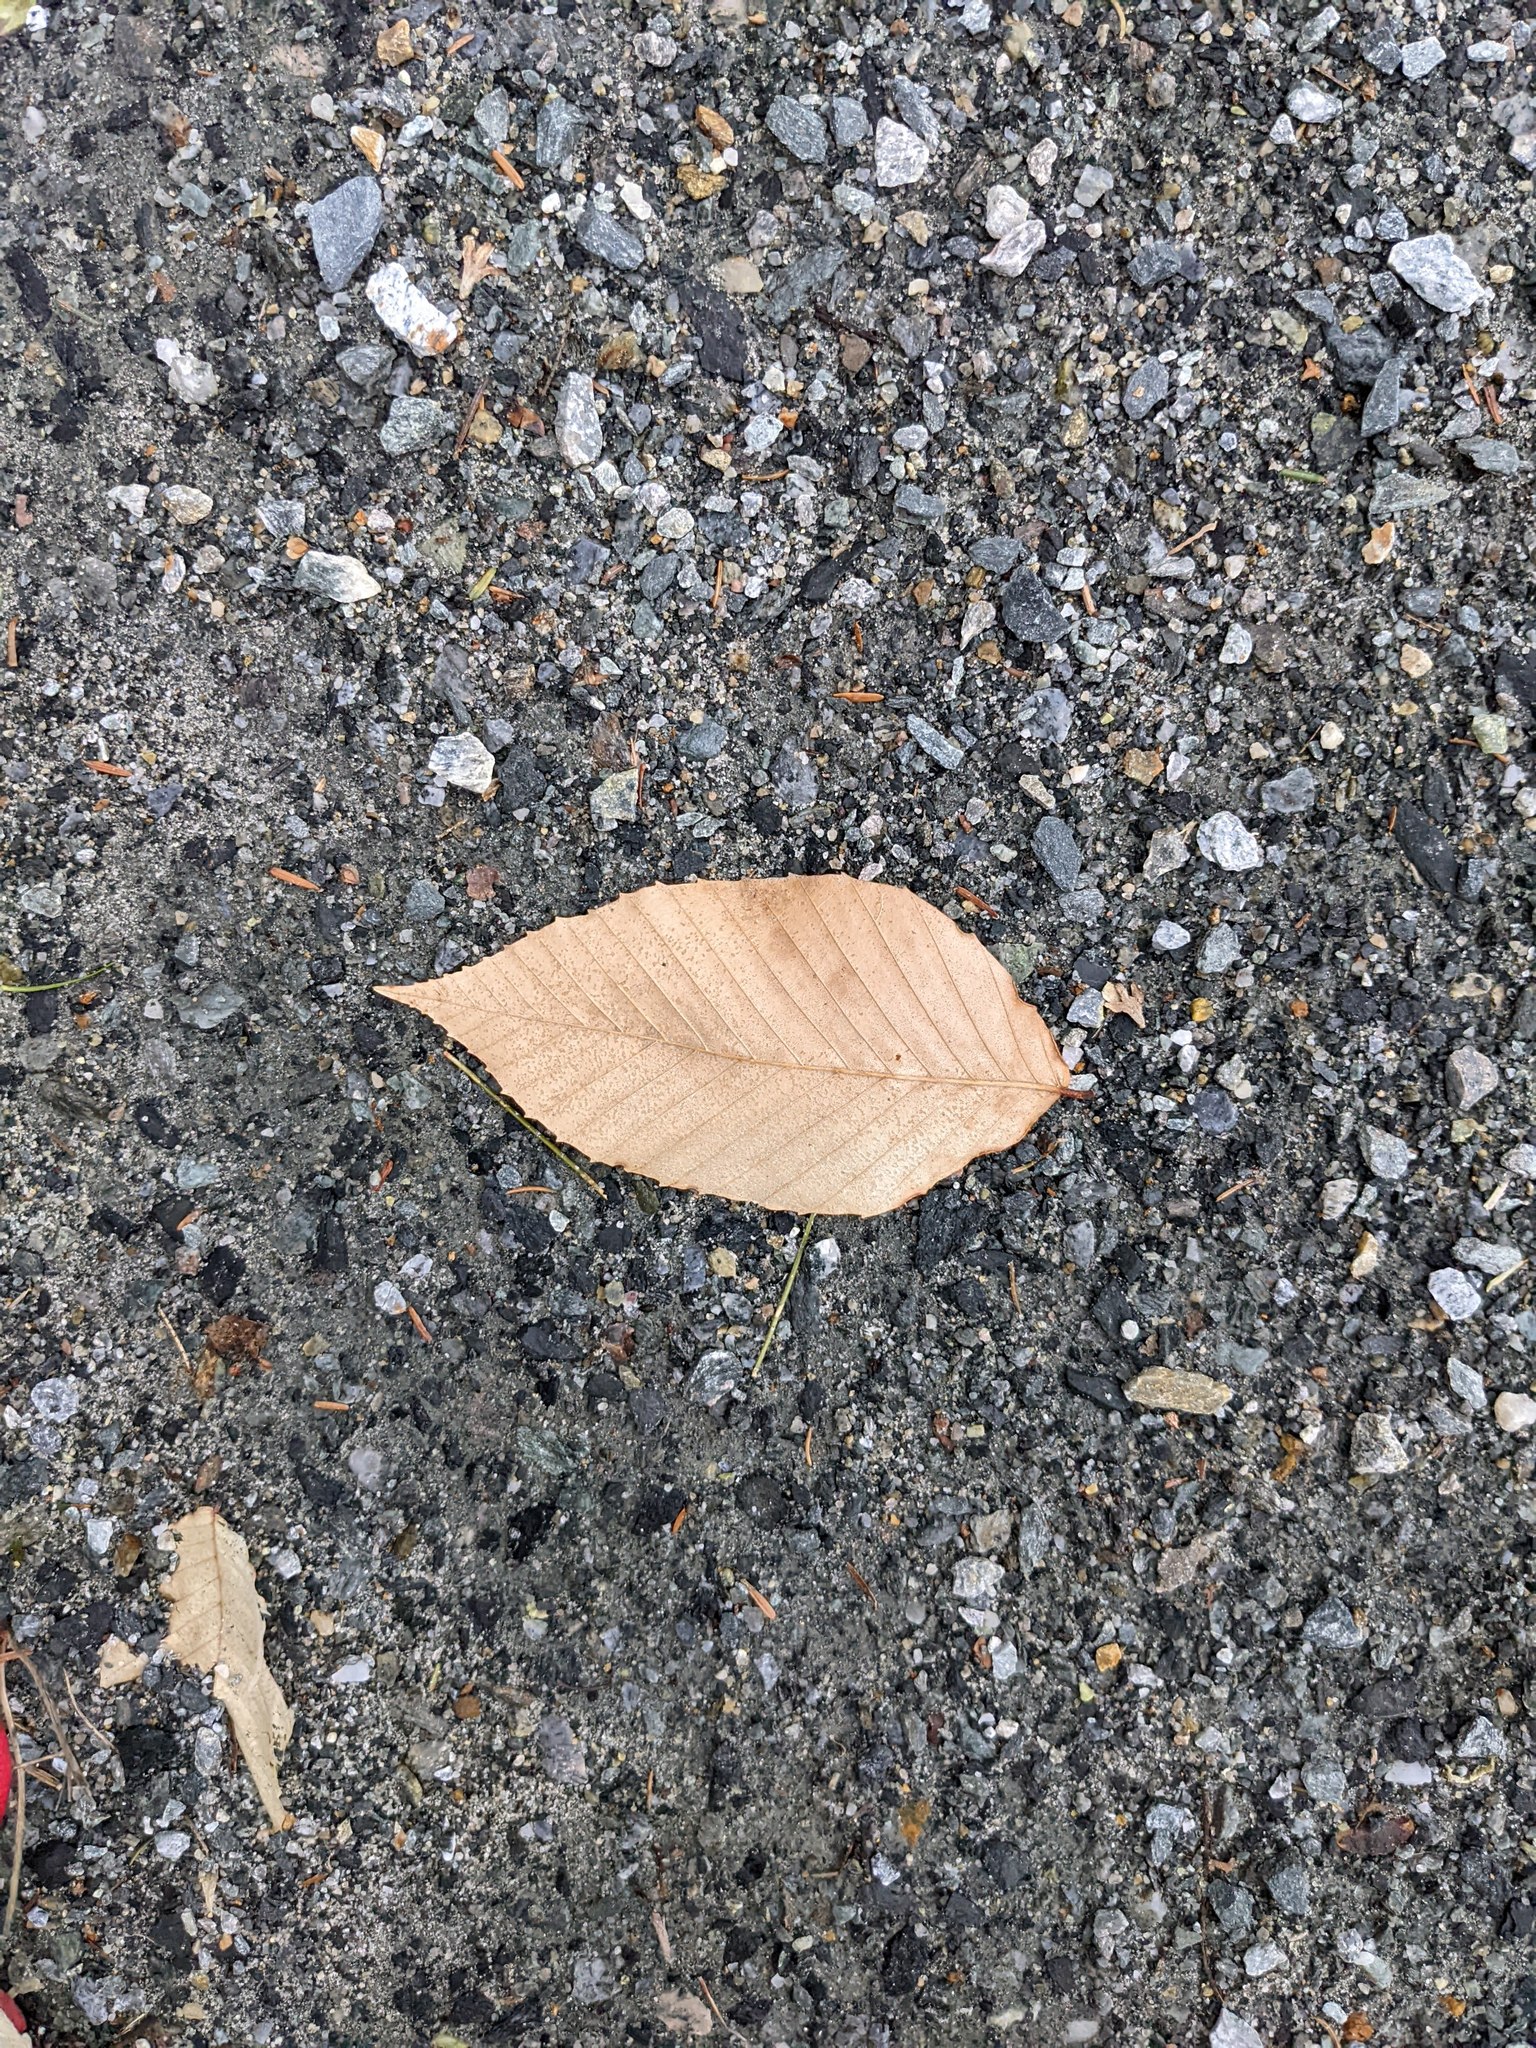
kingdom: Plantae
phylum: Tracheophyta
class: Magnoliopsida
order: Fagales
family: Fagaceae
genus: Fagus
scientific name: Fagus grandifolia
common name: American beech
